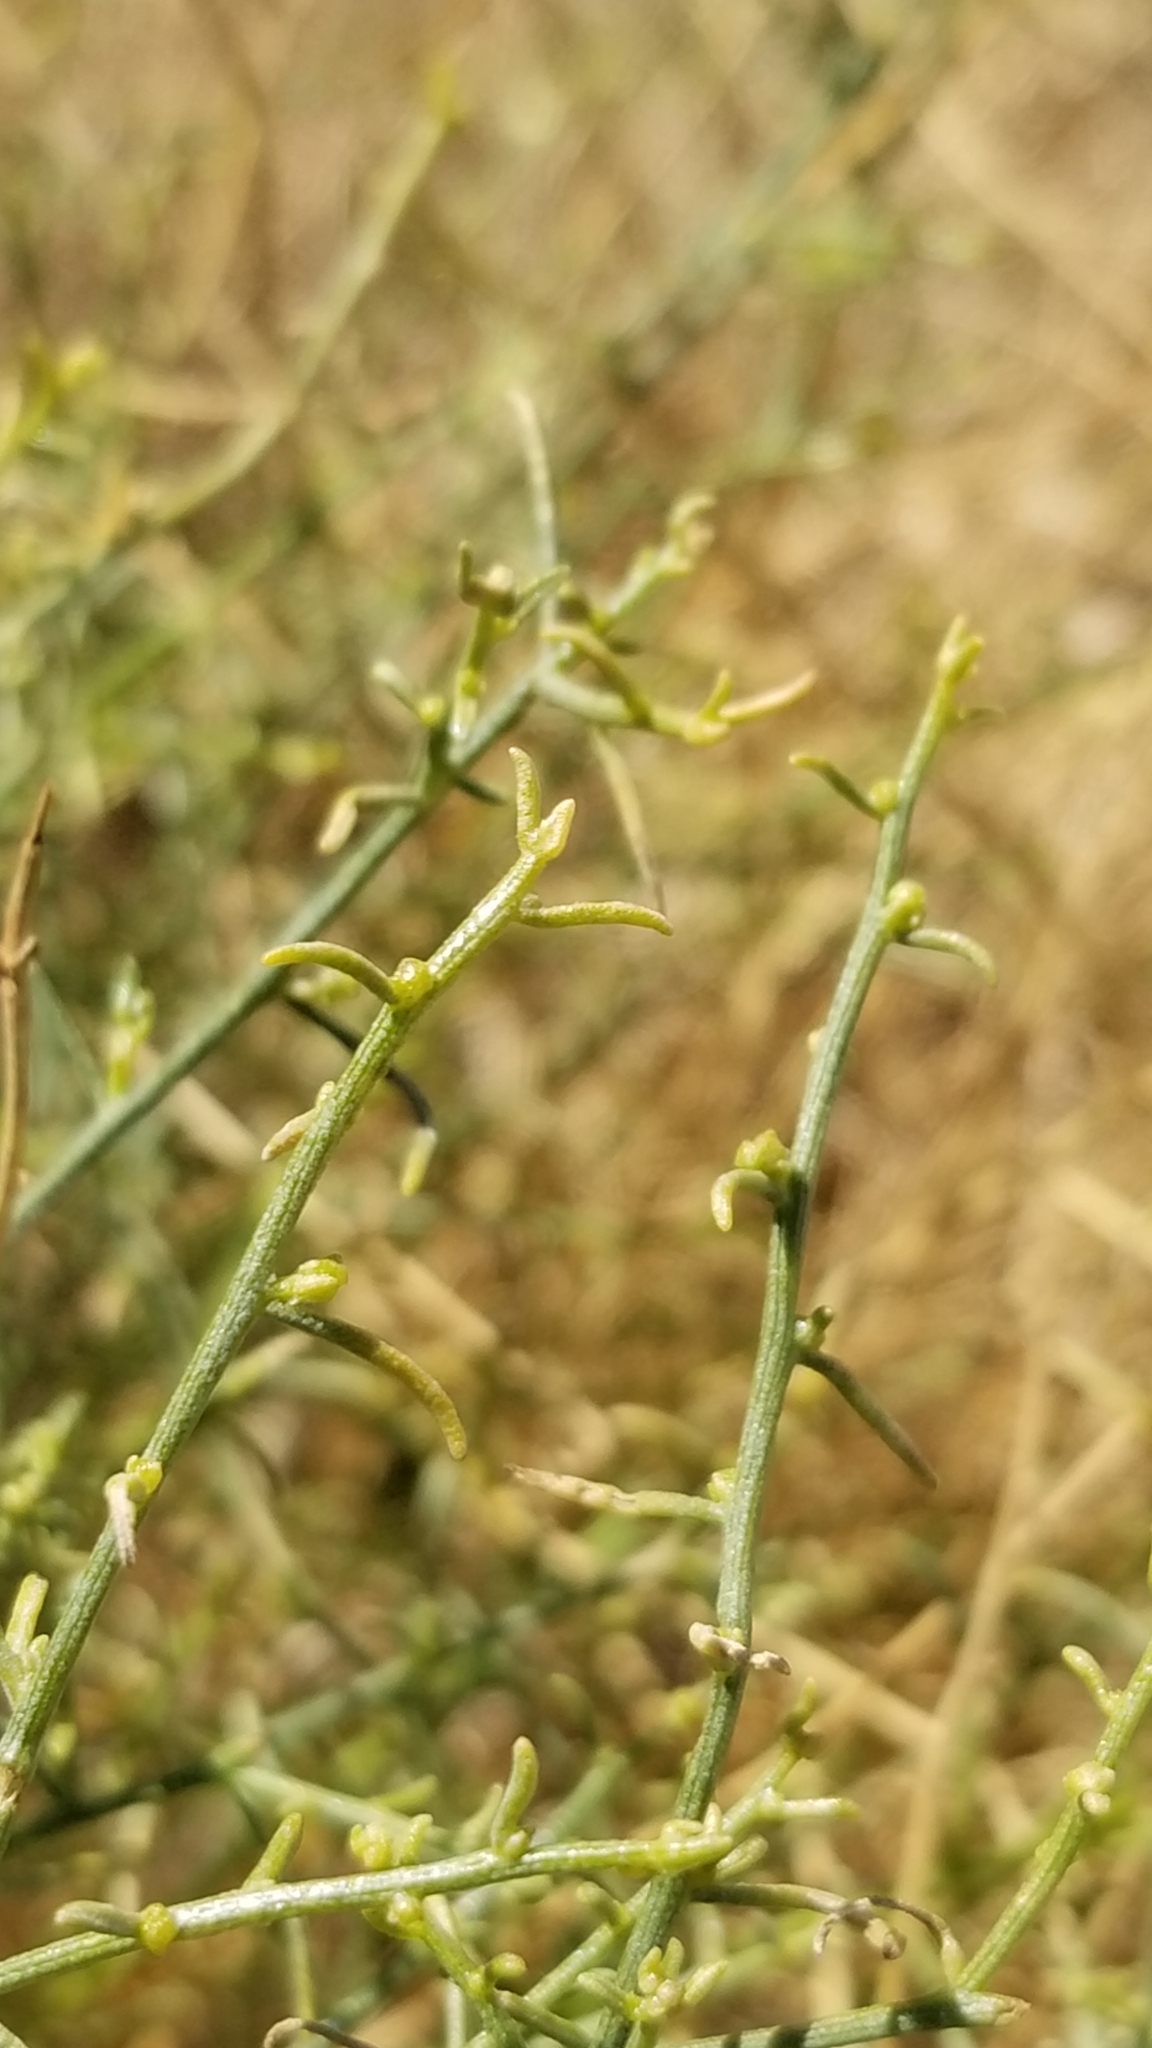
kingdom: Plantae
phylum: Tracheophyta
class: Magnoliopsida
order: Asterales
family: Asteraceae
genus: Ambrosia
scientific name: Ambrosia salsola
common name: Burrobrush
